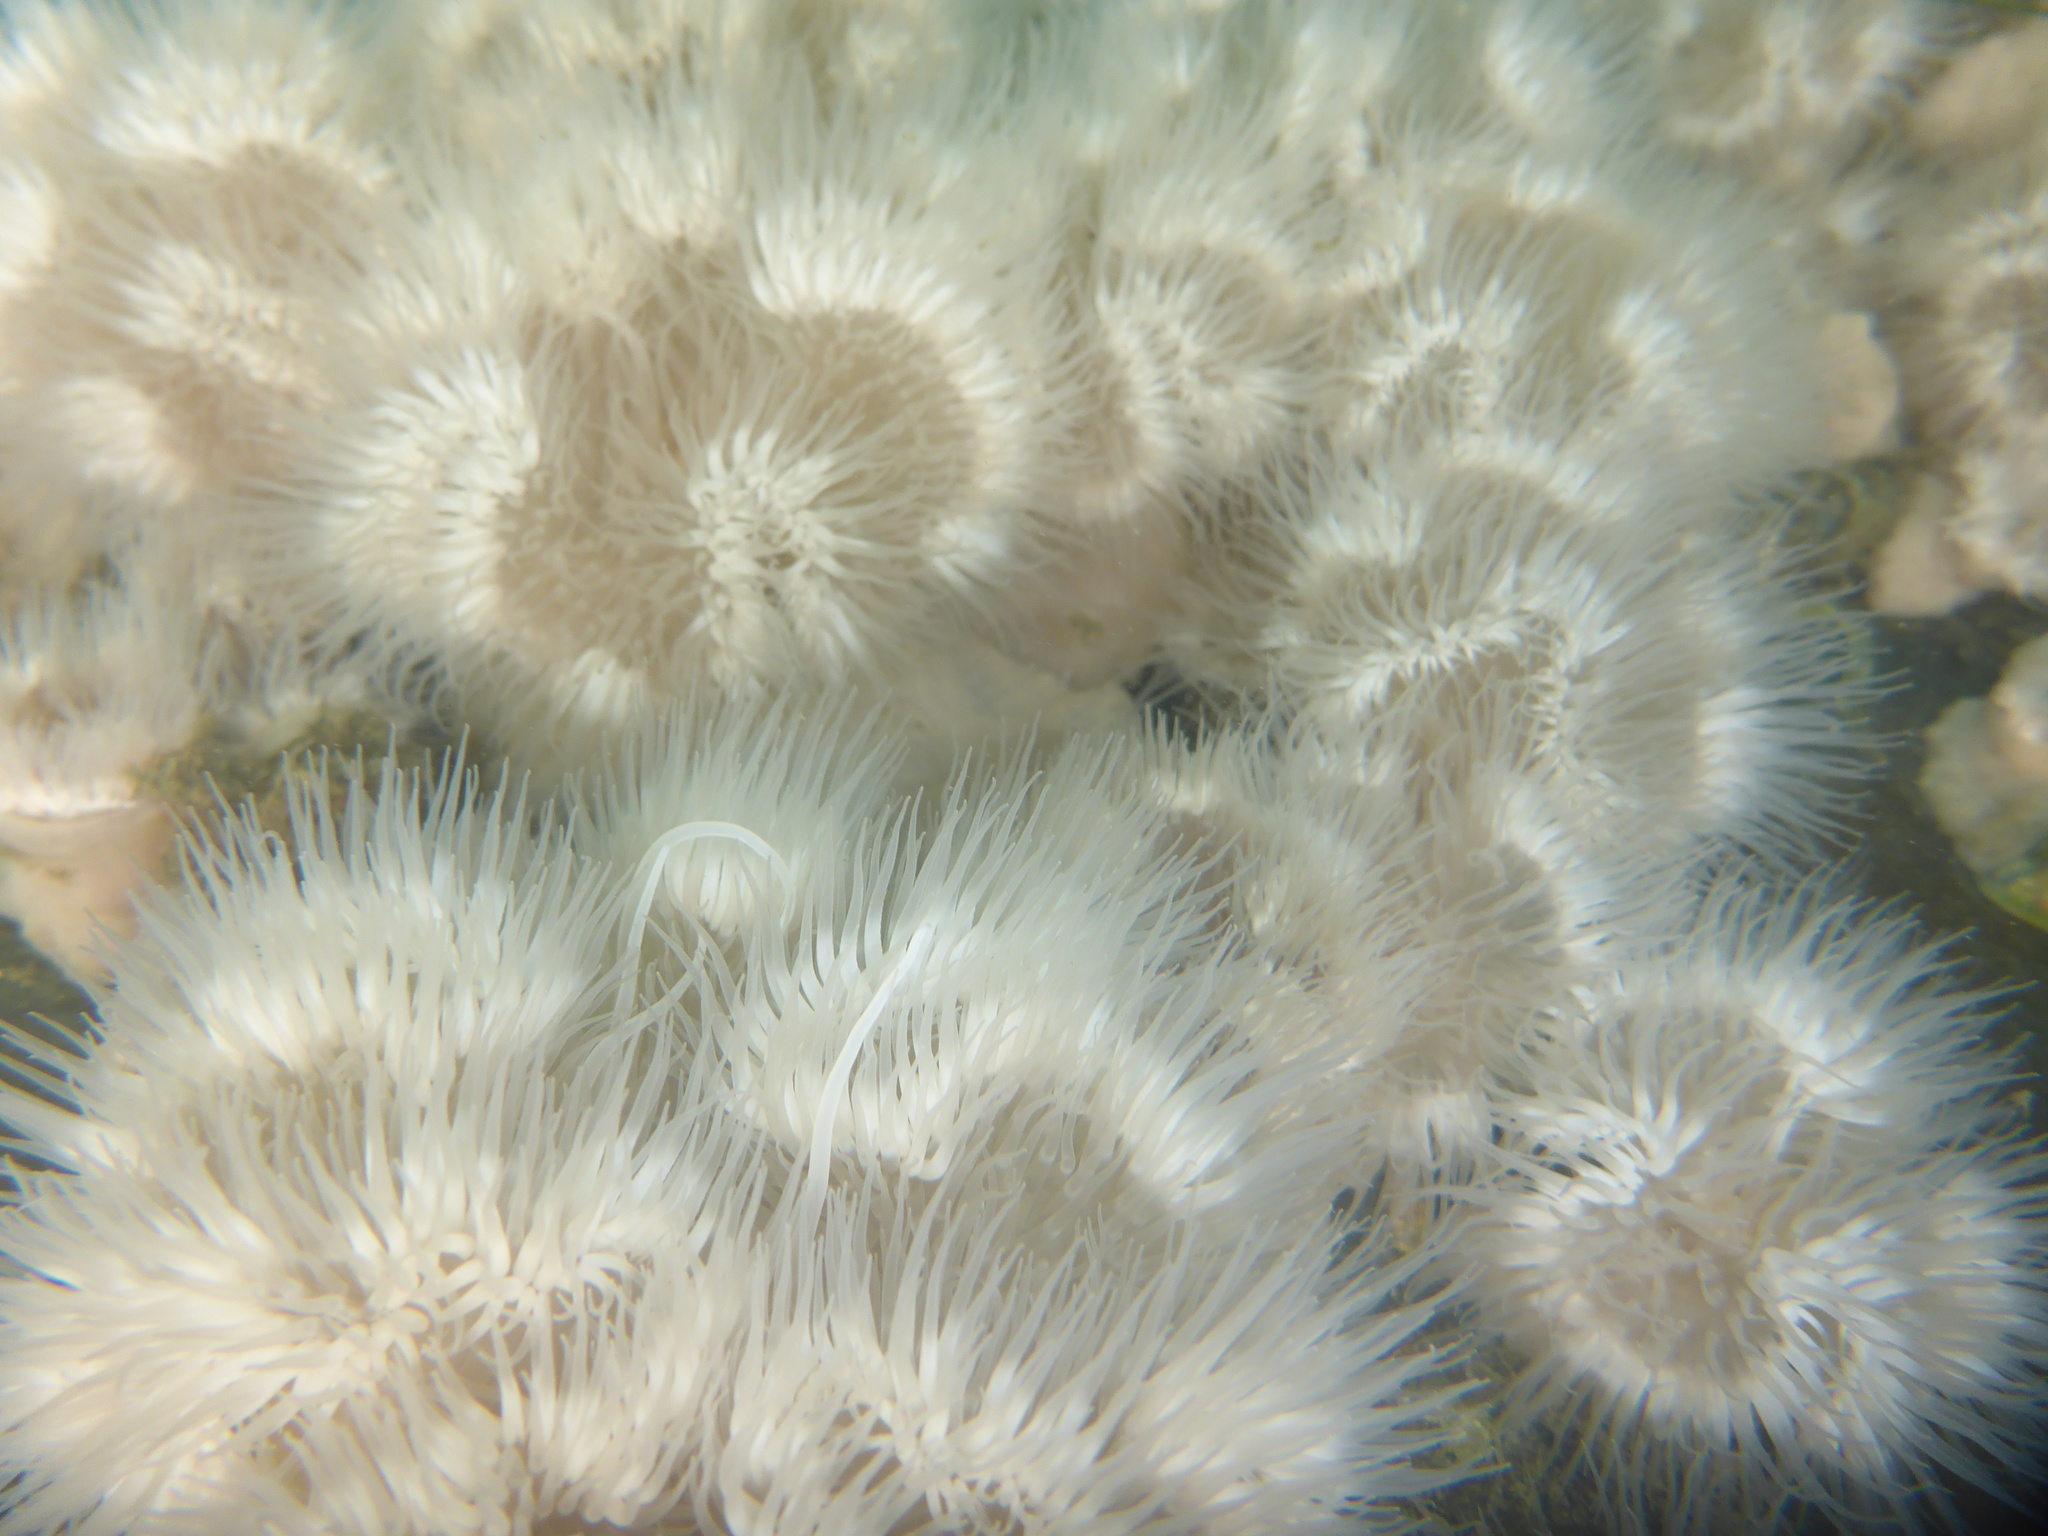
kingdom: Animalia
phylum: Cnidaria
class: Anthozoa
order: Actiniaria
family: Metridiidae
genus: Metridium
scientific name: Metridium senile
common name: Clonal plumose anemone
